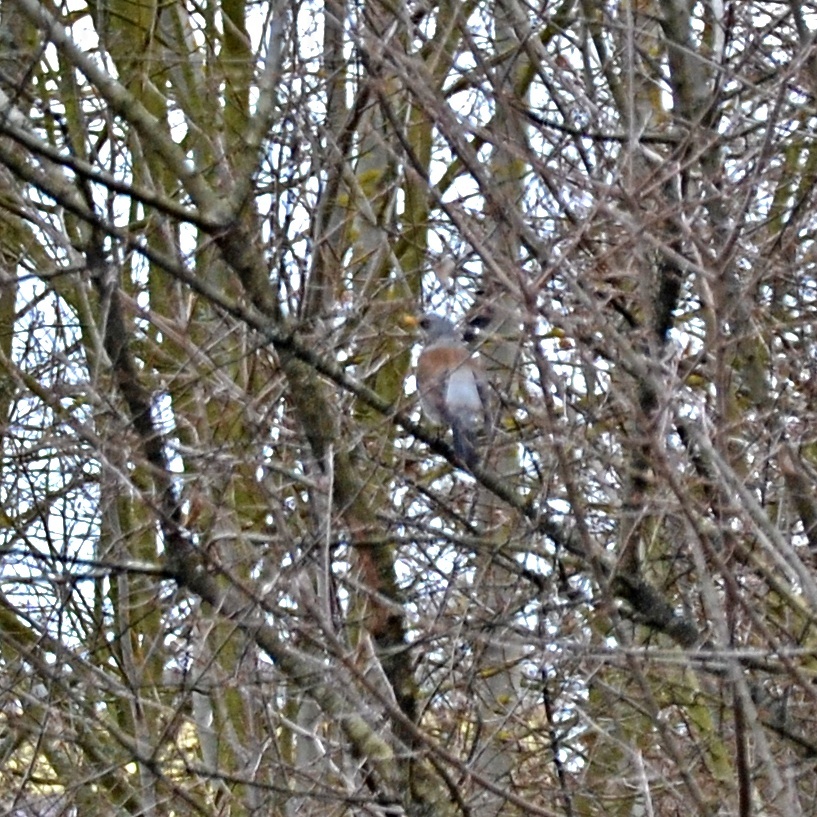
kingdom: Animalia
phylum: Chordata
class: Aves
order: Passeriformes
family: Turdidae
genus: Turdus
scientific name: Turdus pilaris
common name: Fieldfare
